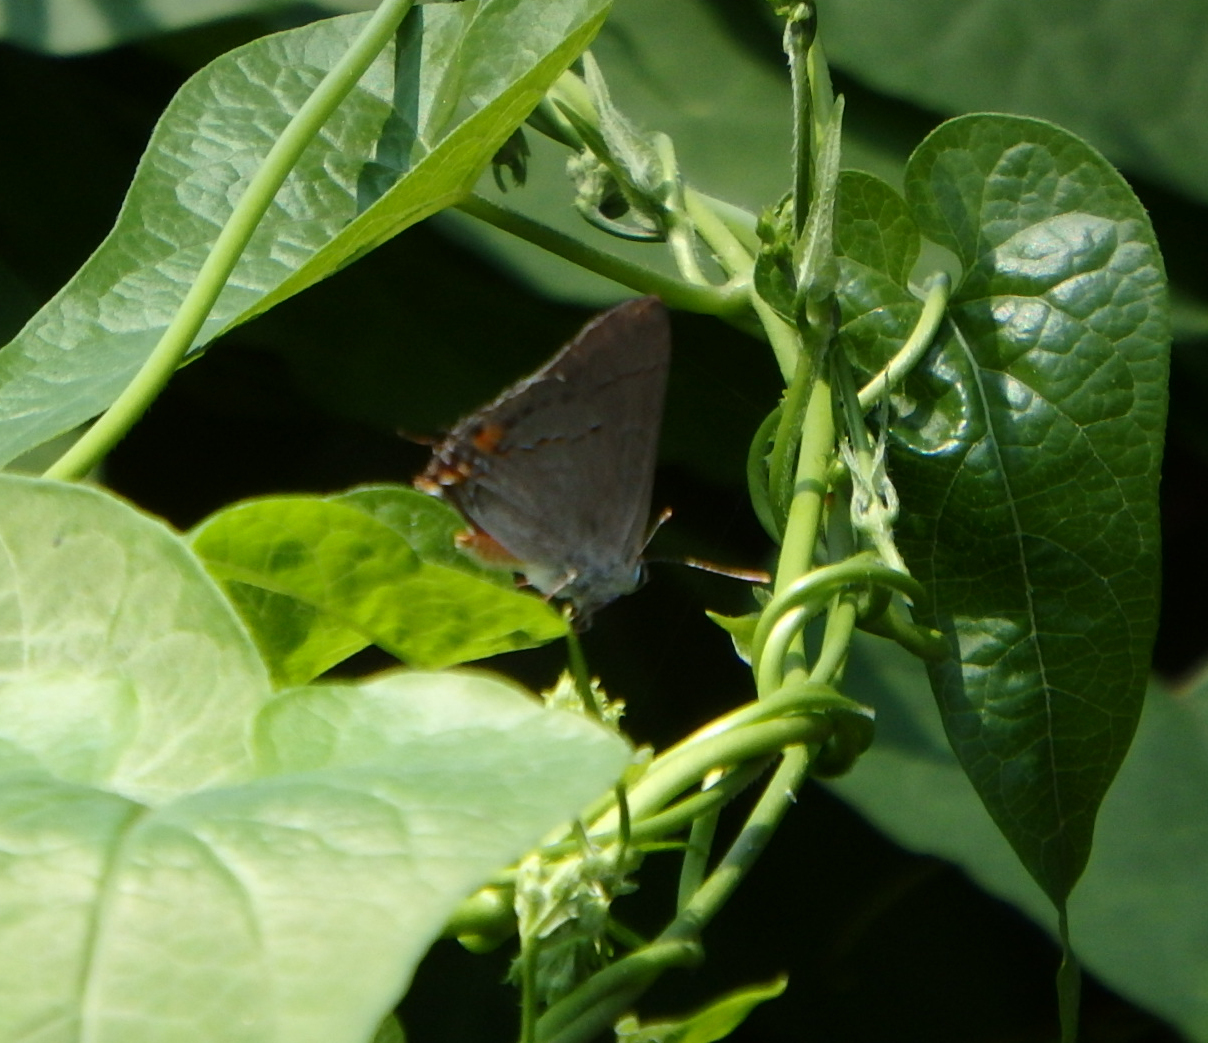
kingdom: Animalia
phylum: Arthropoda
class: Insecta
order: Lepidoptera
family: Lycaenidae
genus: Strymon
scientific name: Strymon melinus
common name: Gray hairstreak
